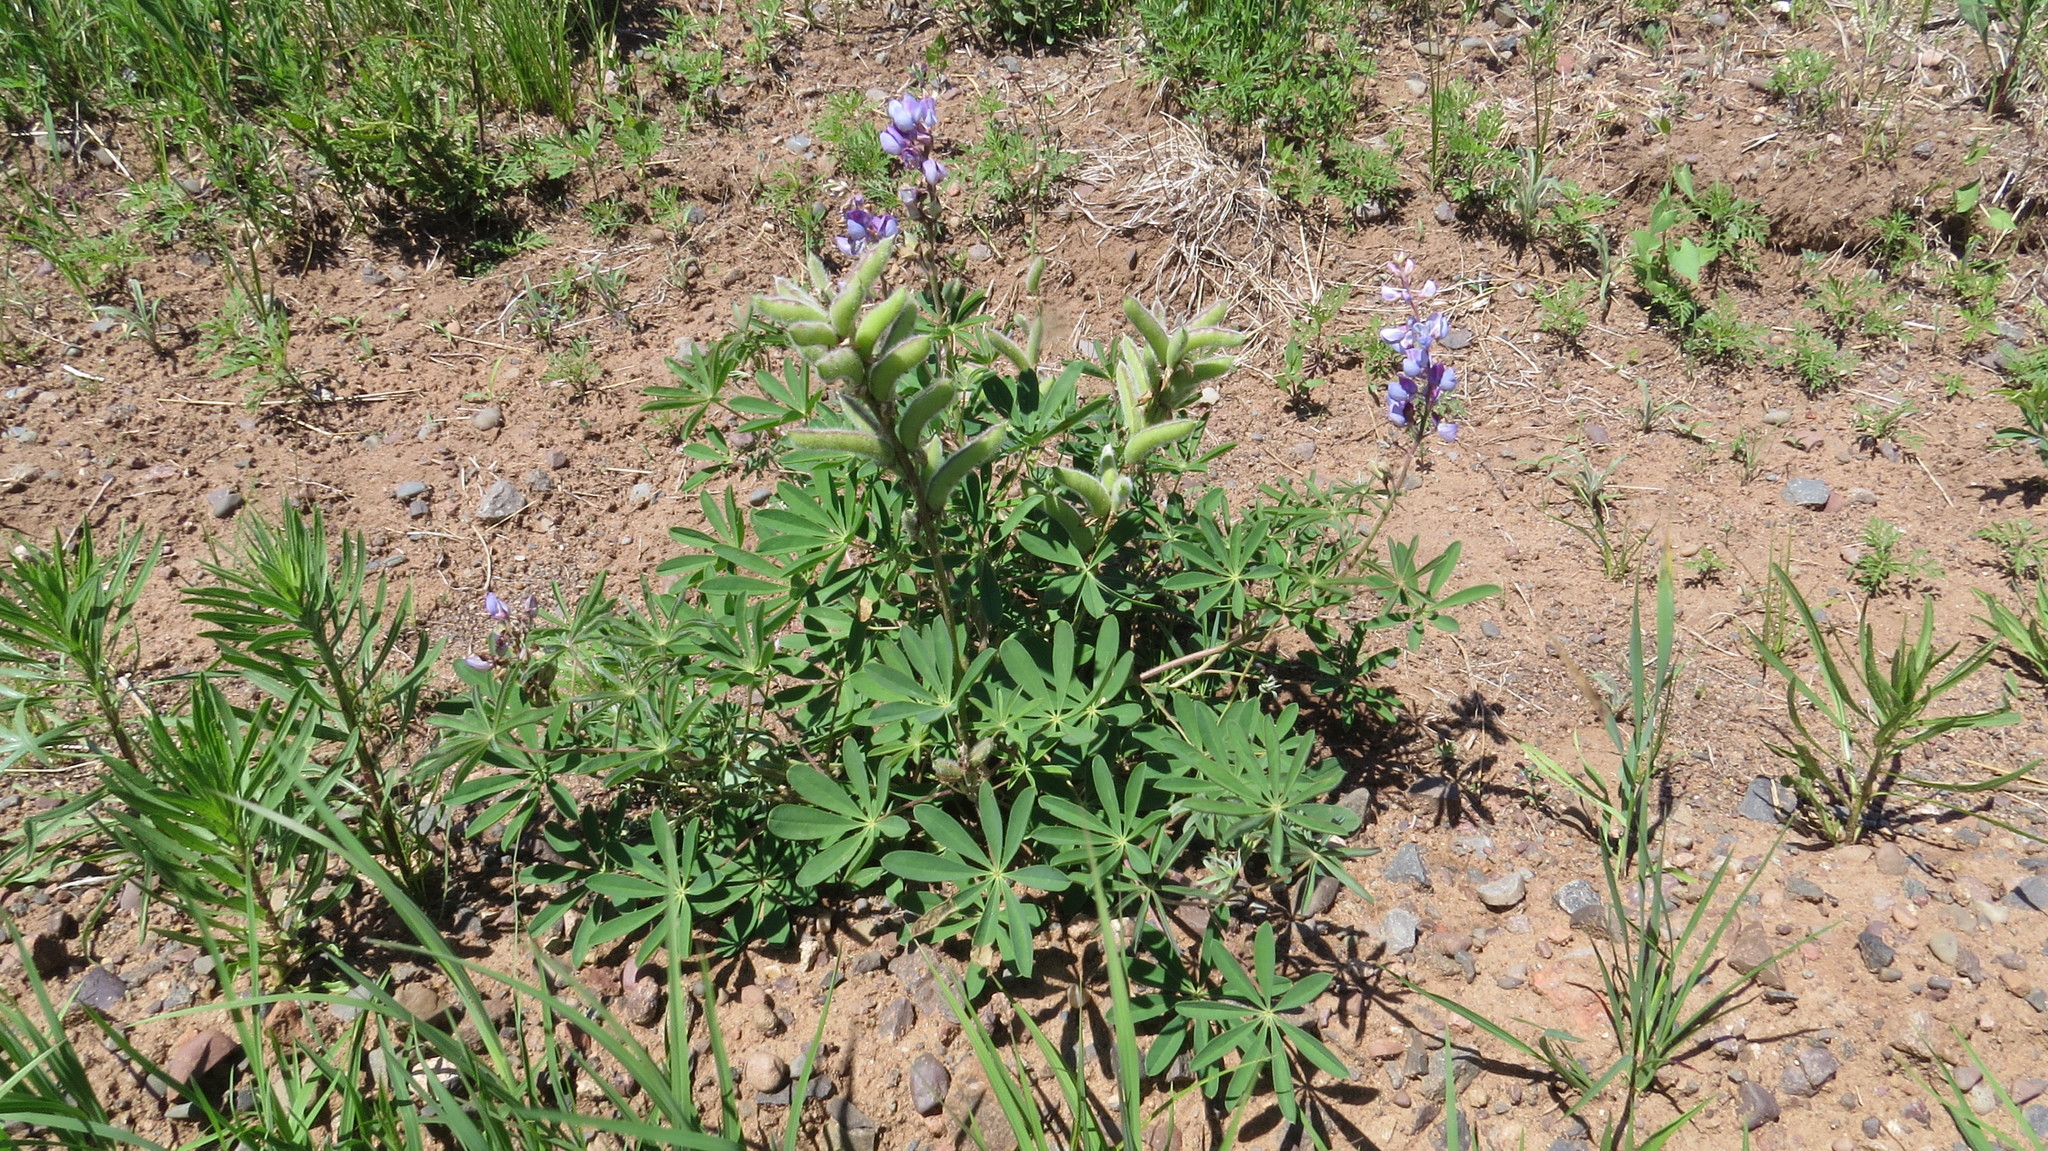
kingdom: Plantae
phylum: Tracheophyta
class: Magnoliopsida
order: Fabales
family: Fabaceae
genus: Lupinus
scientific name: Lupinus perennis
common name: Sundial lupine
